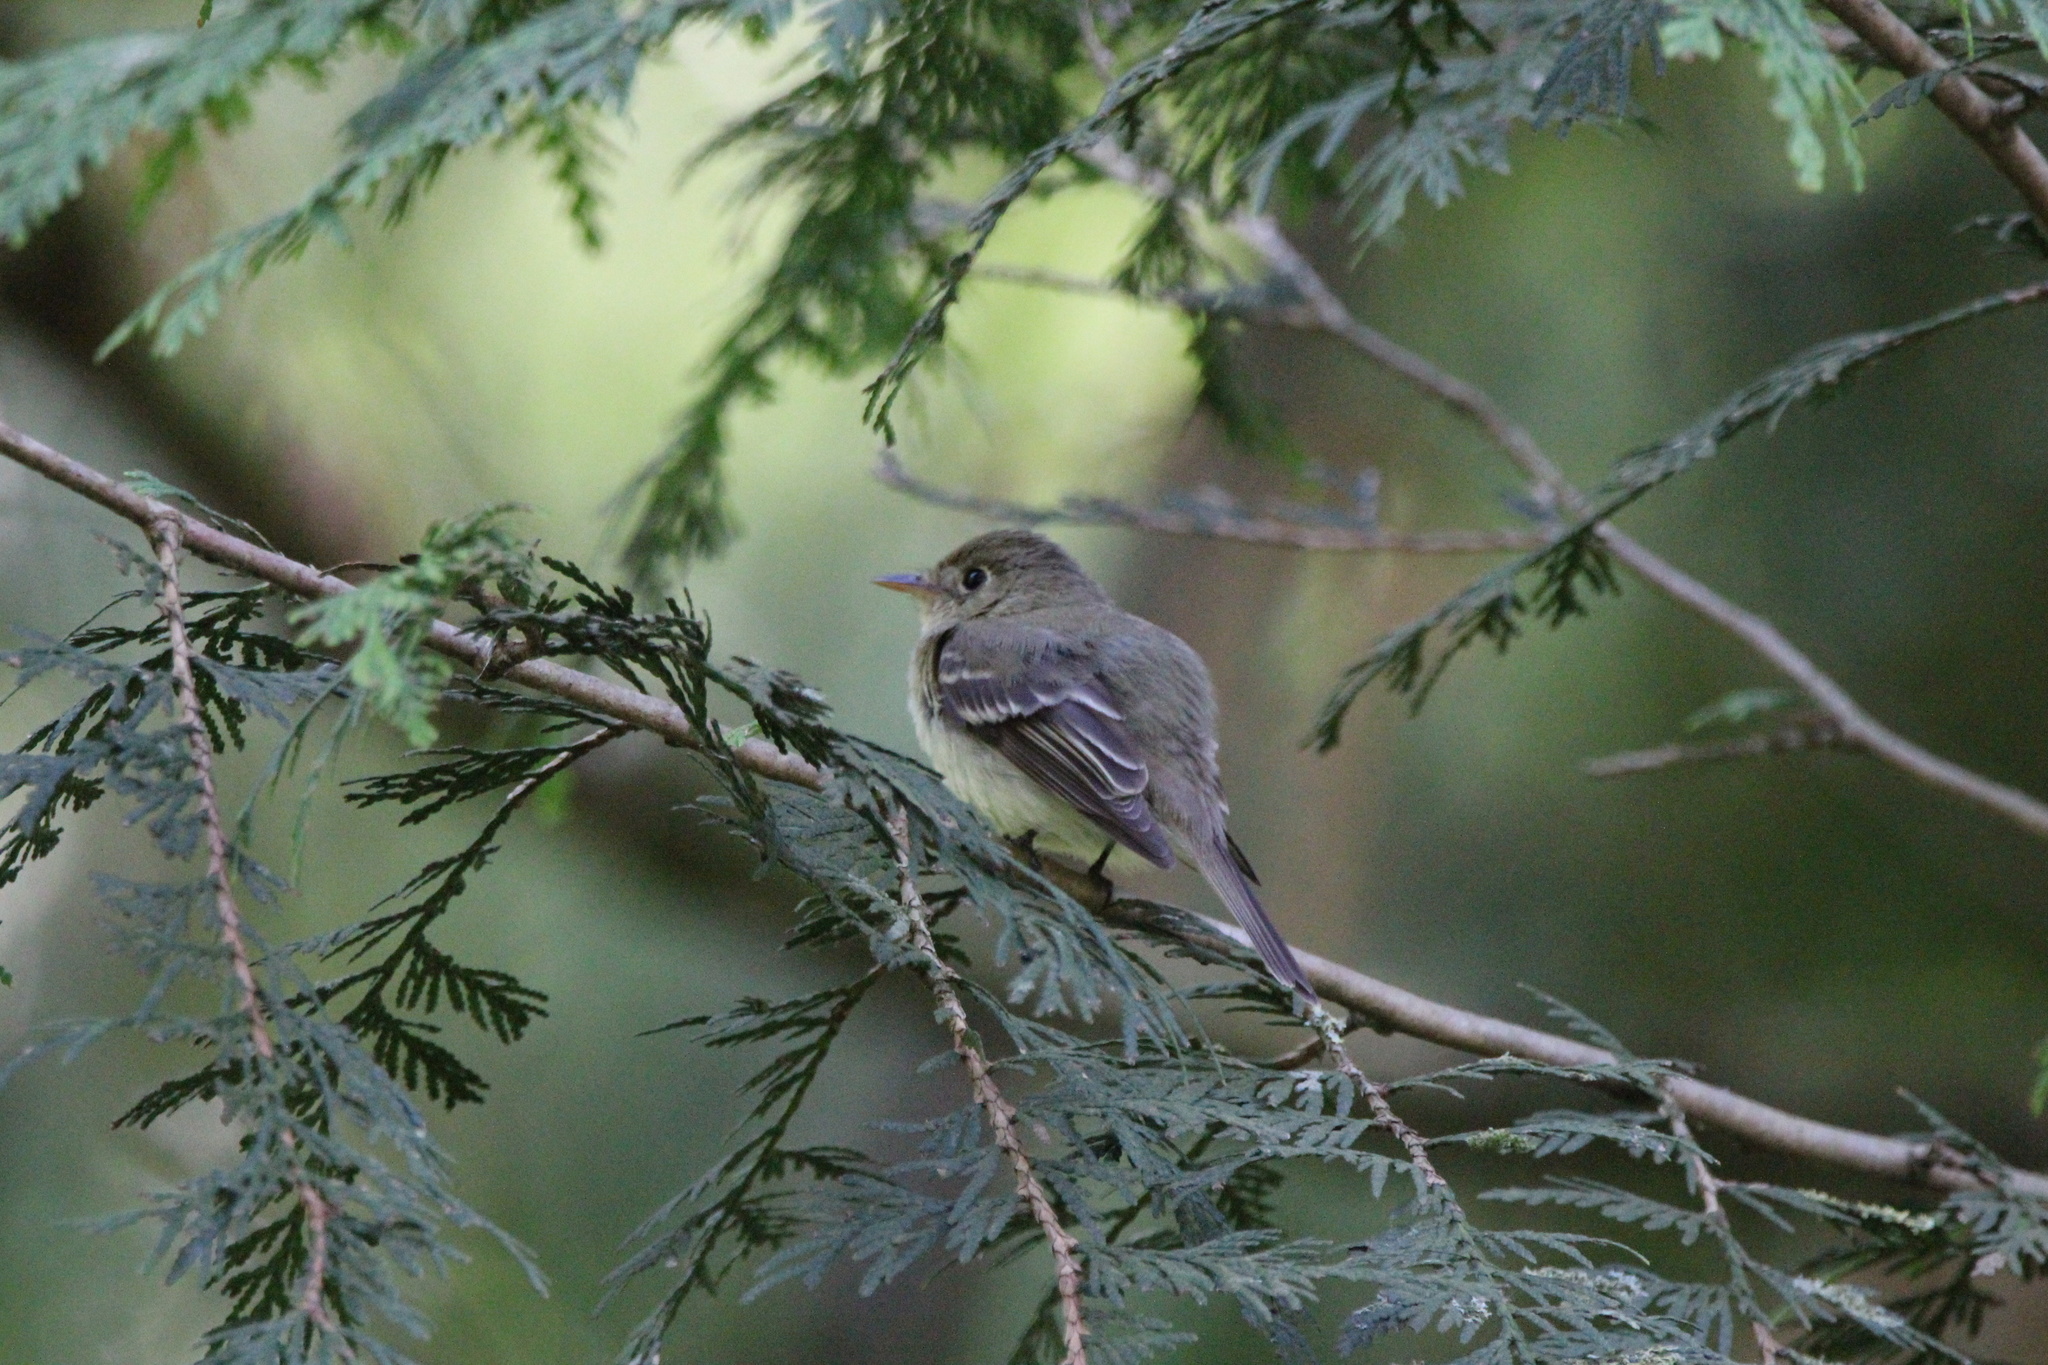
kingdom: Animalia
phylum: Chordata
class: Aves
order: Passeriformes
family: Tyrannidae
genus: Empidonax
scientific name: Empidonax difficilis
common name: Pacific-slope flycatcher
